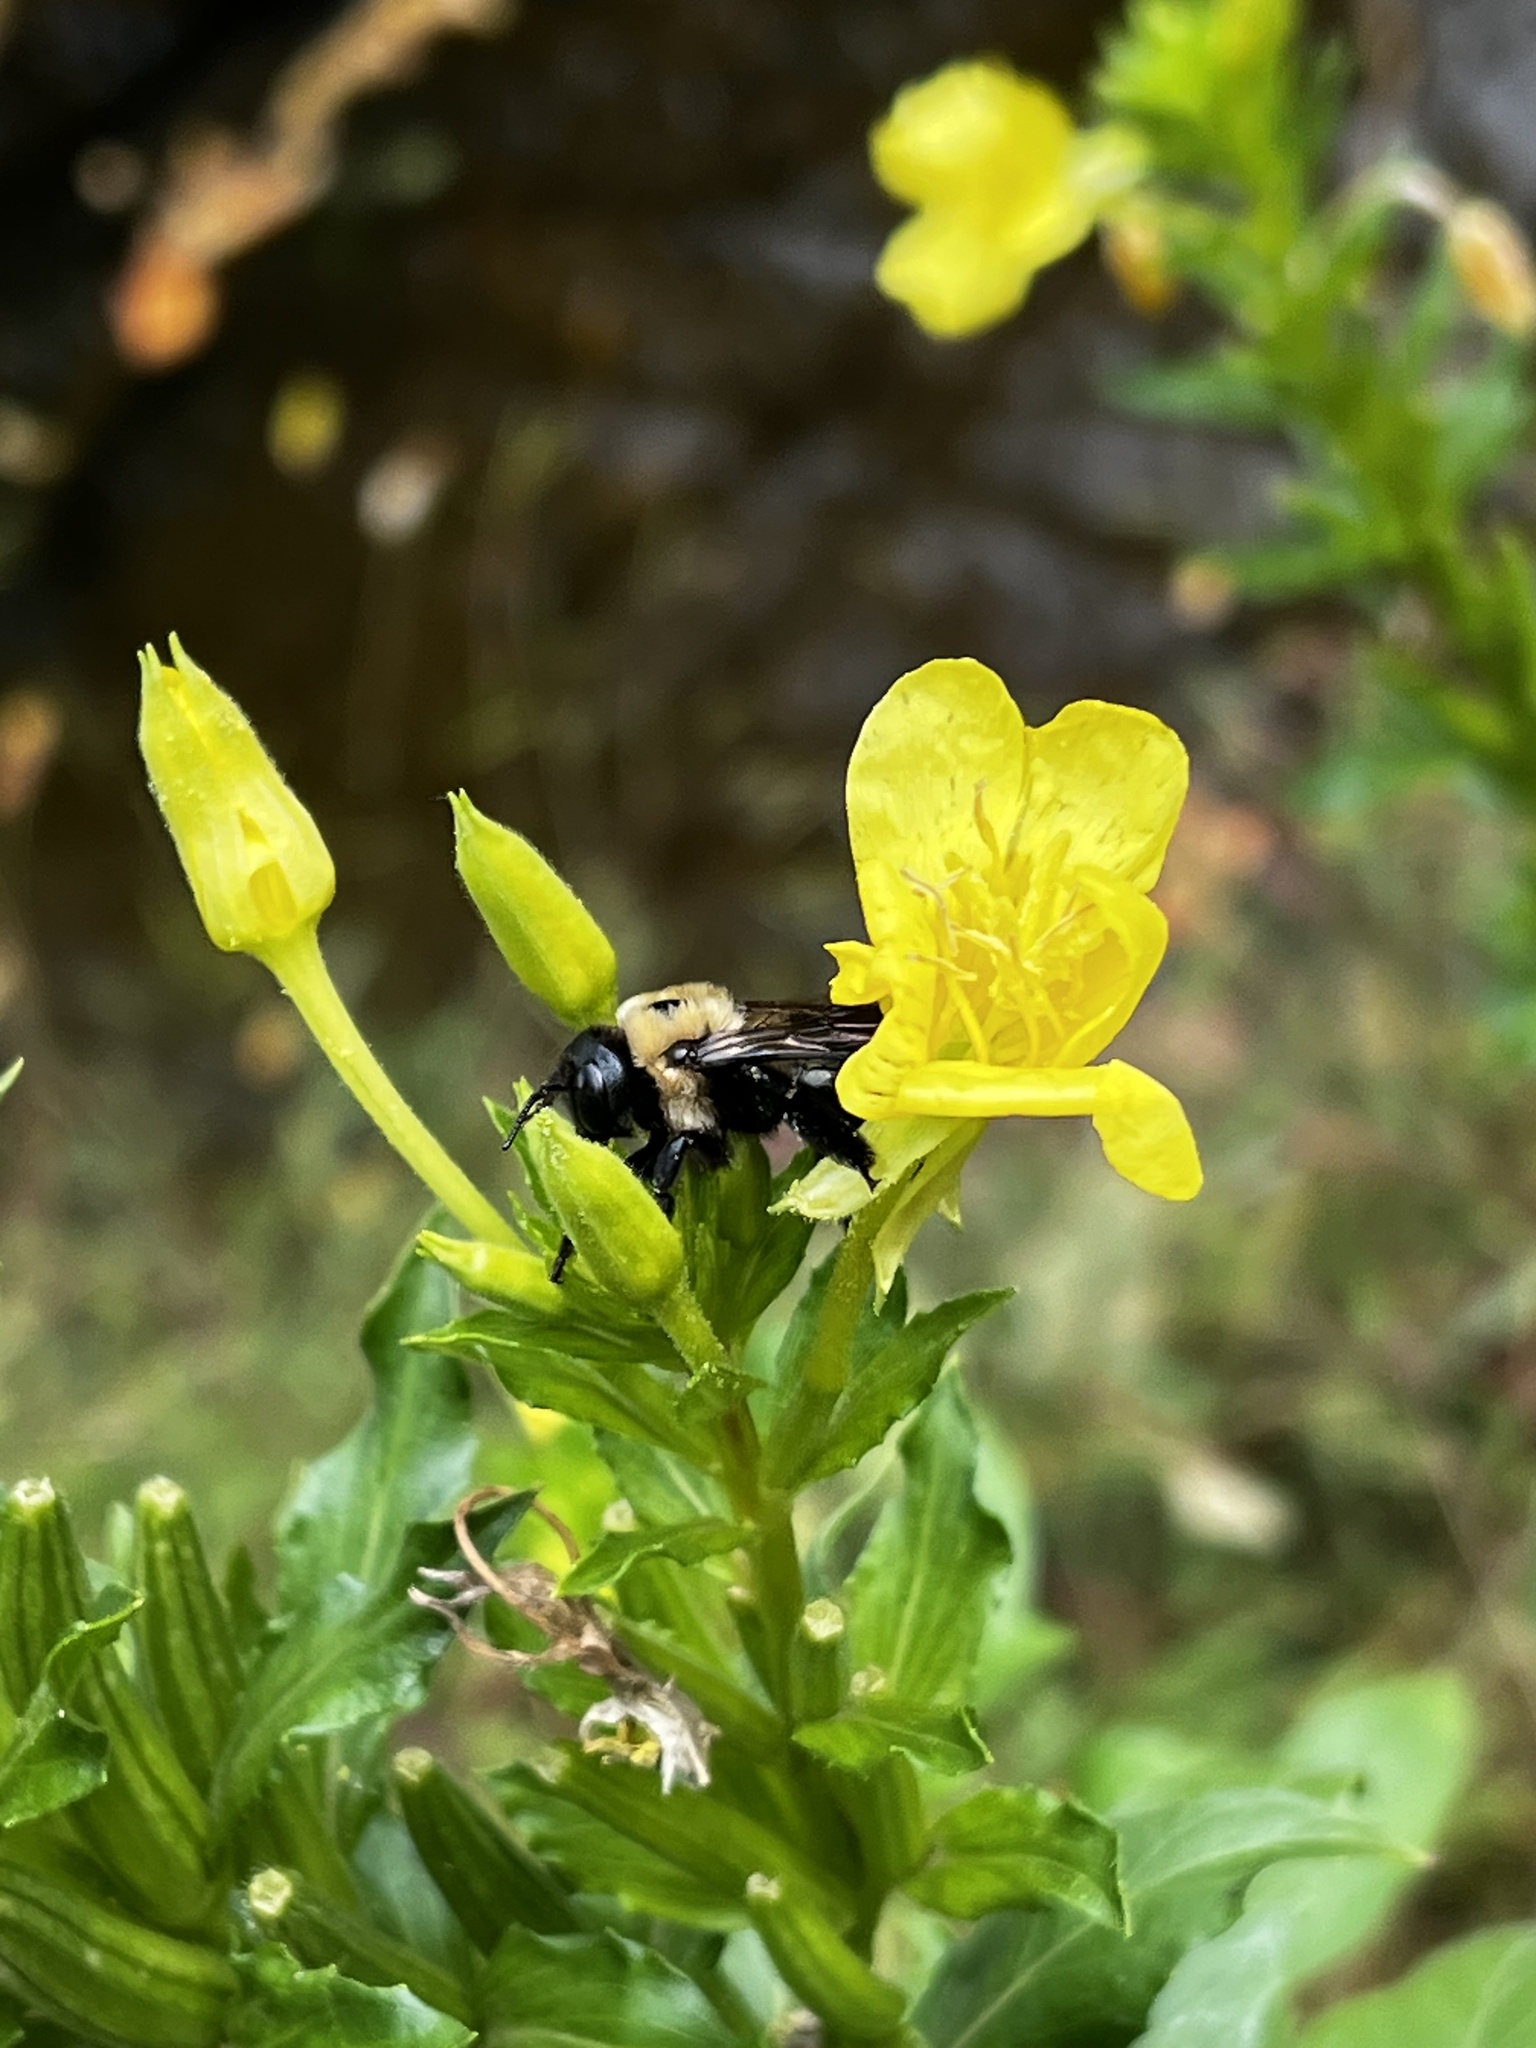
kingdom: Animalia
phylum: Arthropoda
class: Insecta
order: Hymenoptera
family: Apidae
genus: Xylocopa
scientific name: Xylocopa virginica
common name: Carpenter bee
